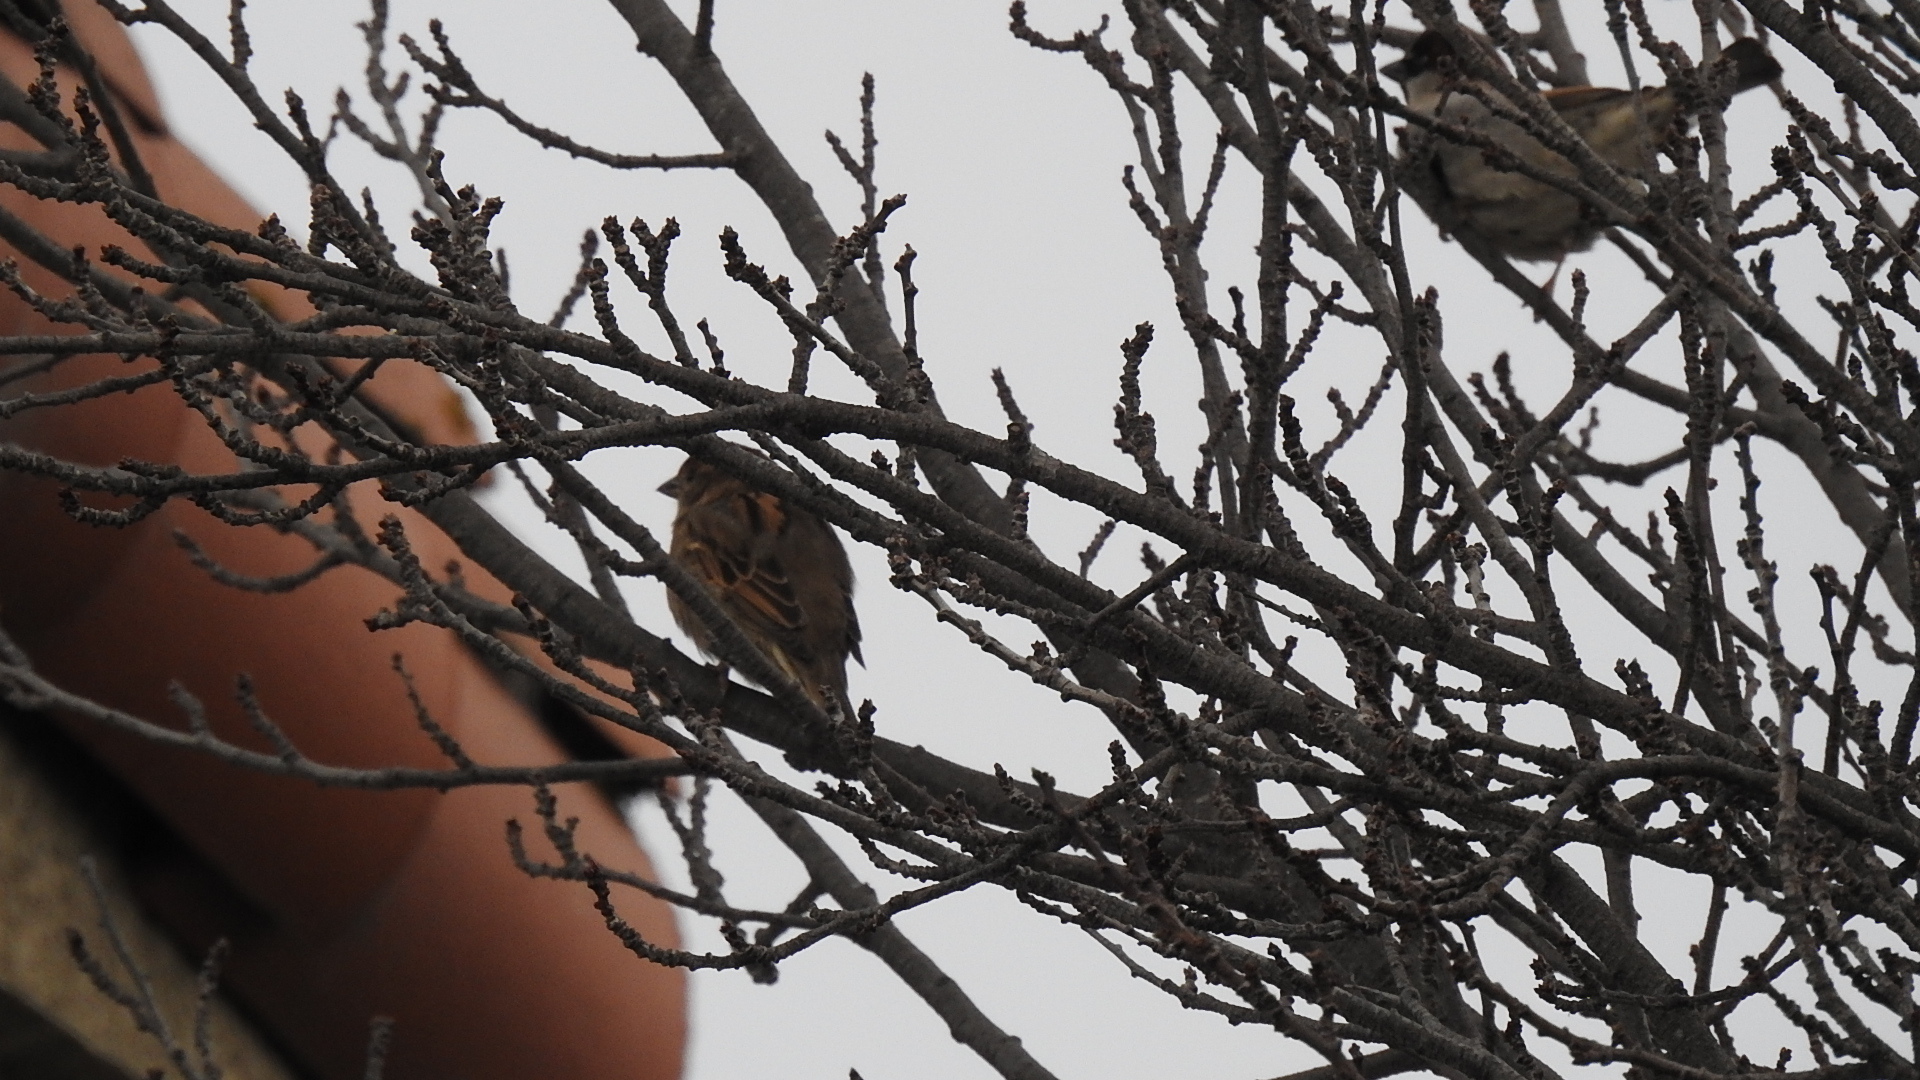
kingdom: Animalia
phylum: Chordata
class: Aves
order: Passeriformes
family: Passeridae
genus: Passer
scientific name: Passer domesticus
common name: House sparrow
